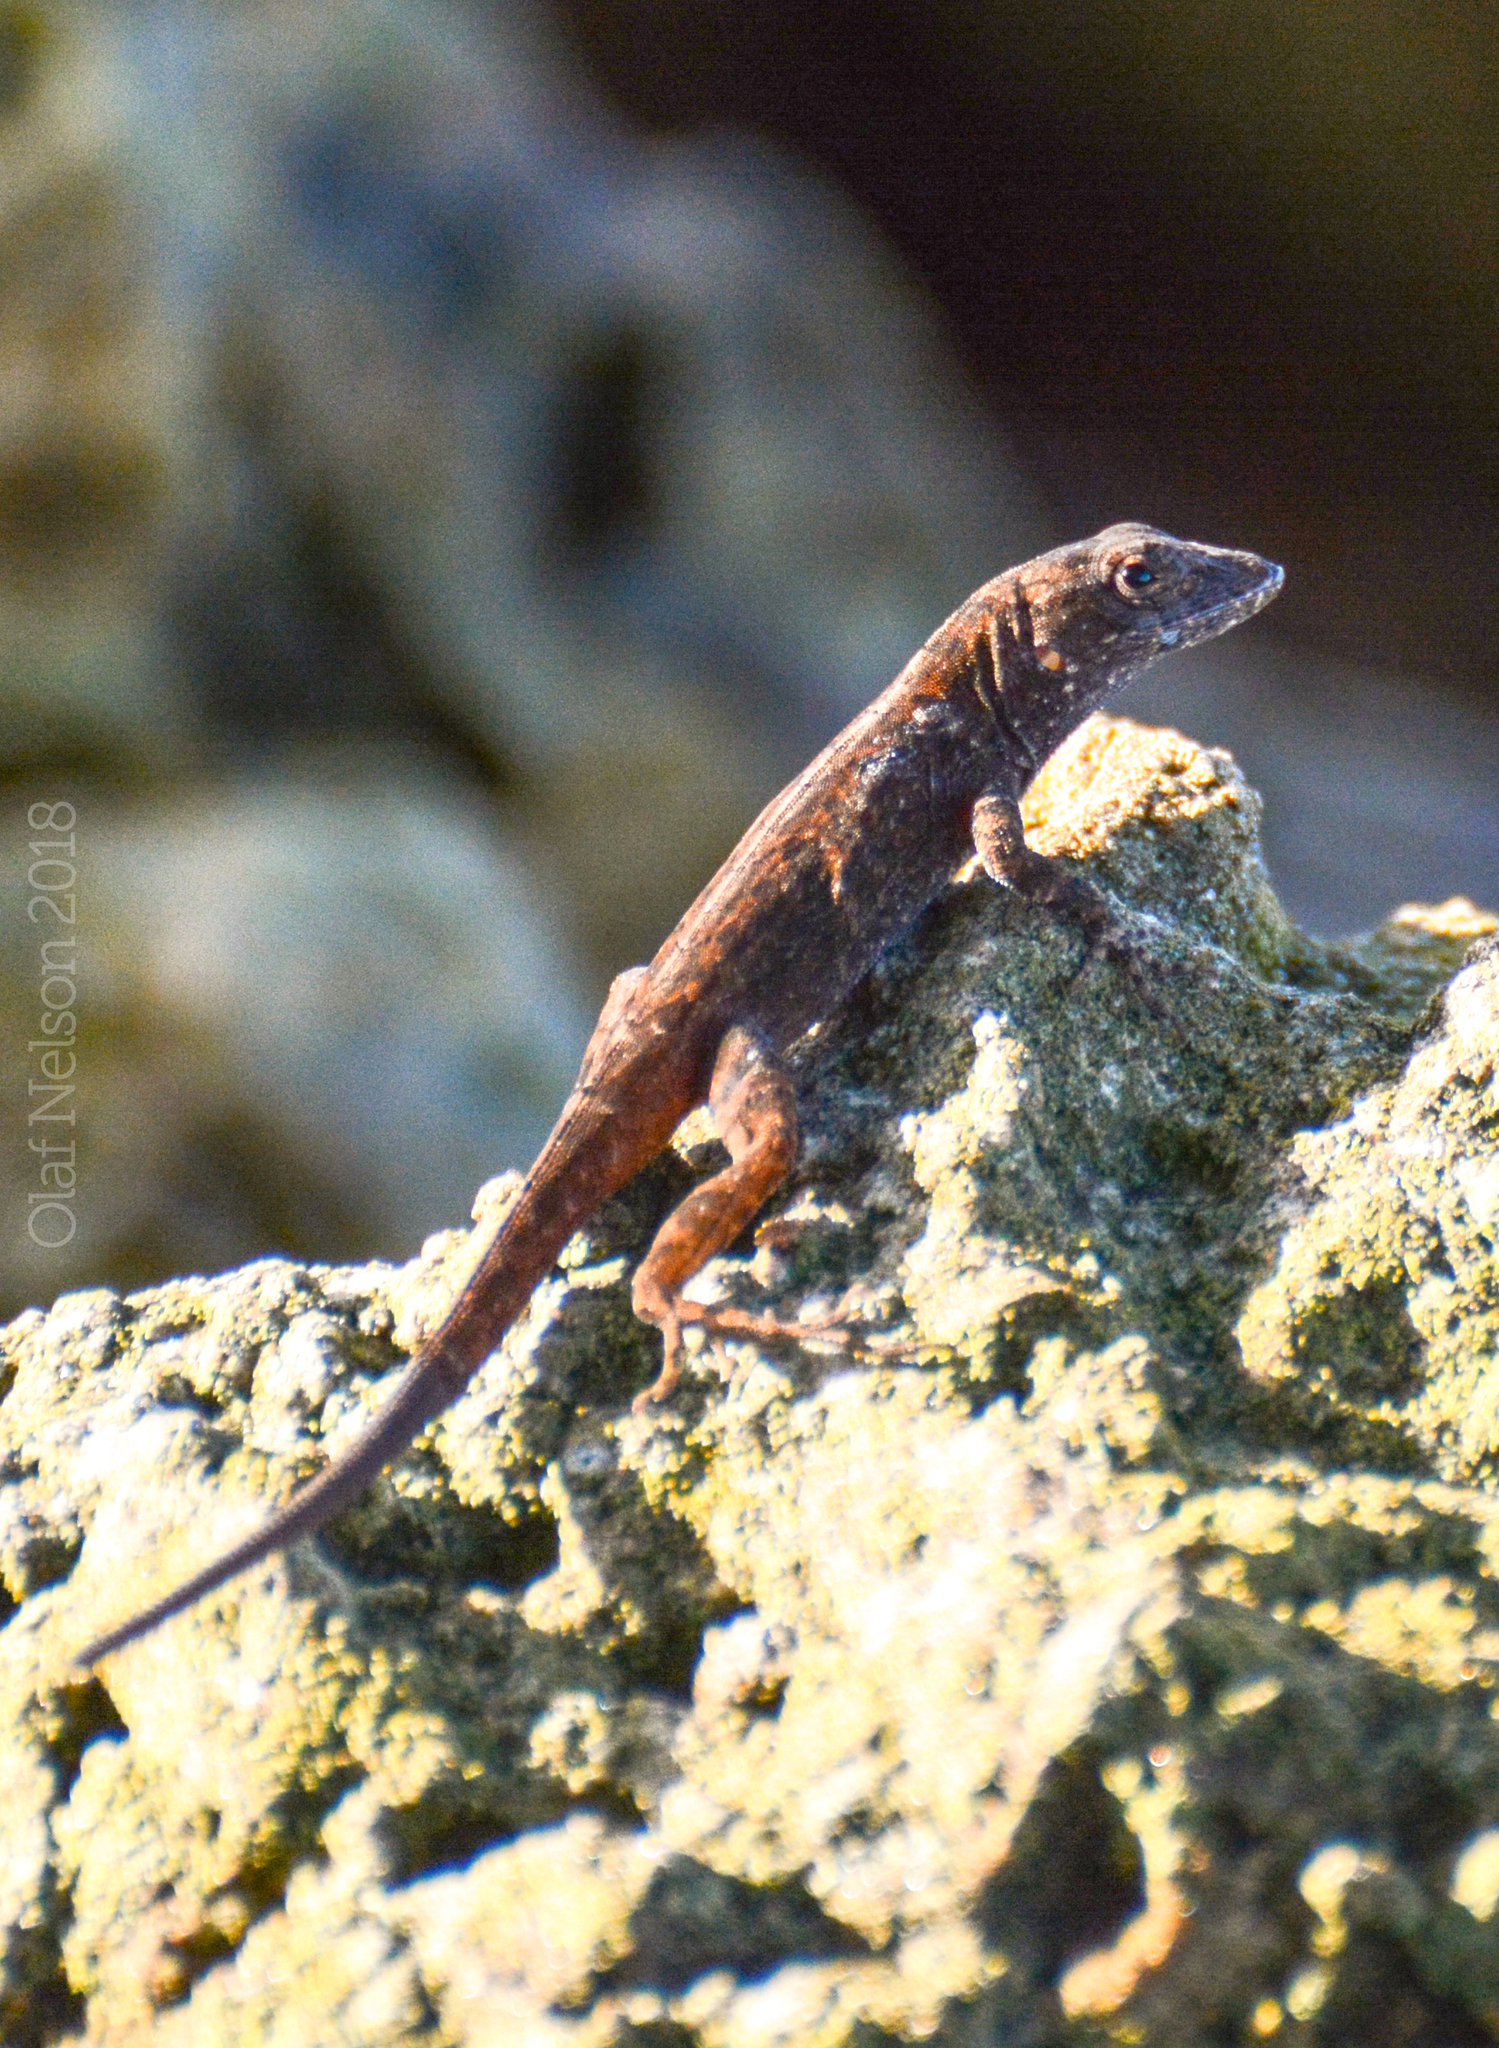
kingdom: Animalia
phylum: Chordata
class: Squamata
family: Dactyloidae
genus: Anolis
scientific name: Anolis sagrei
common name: Brown anole
